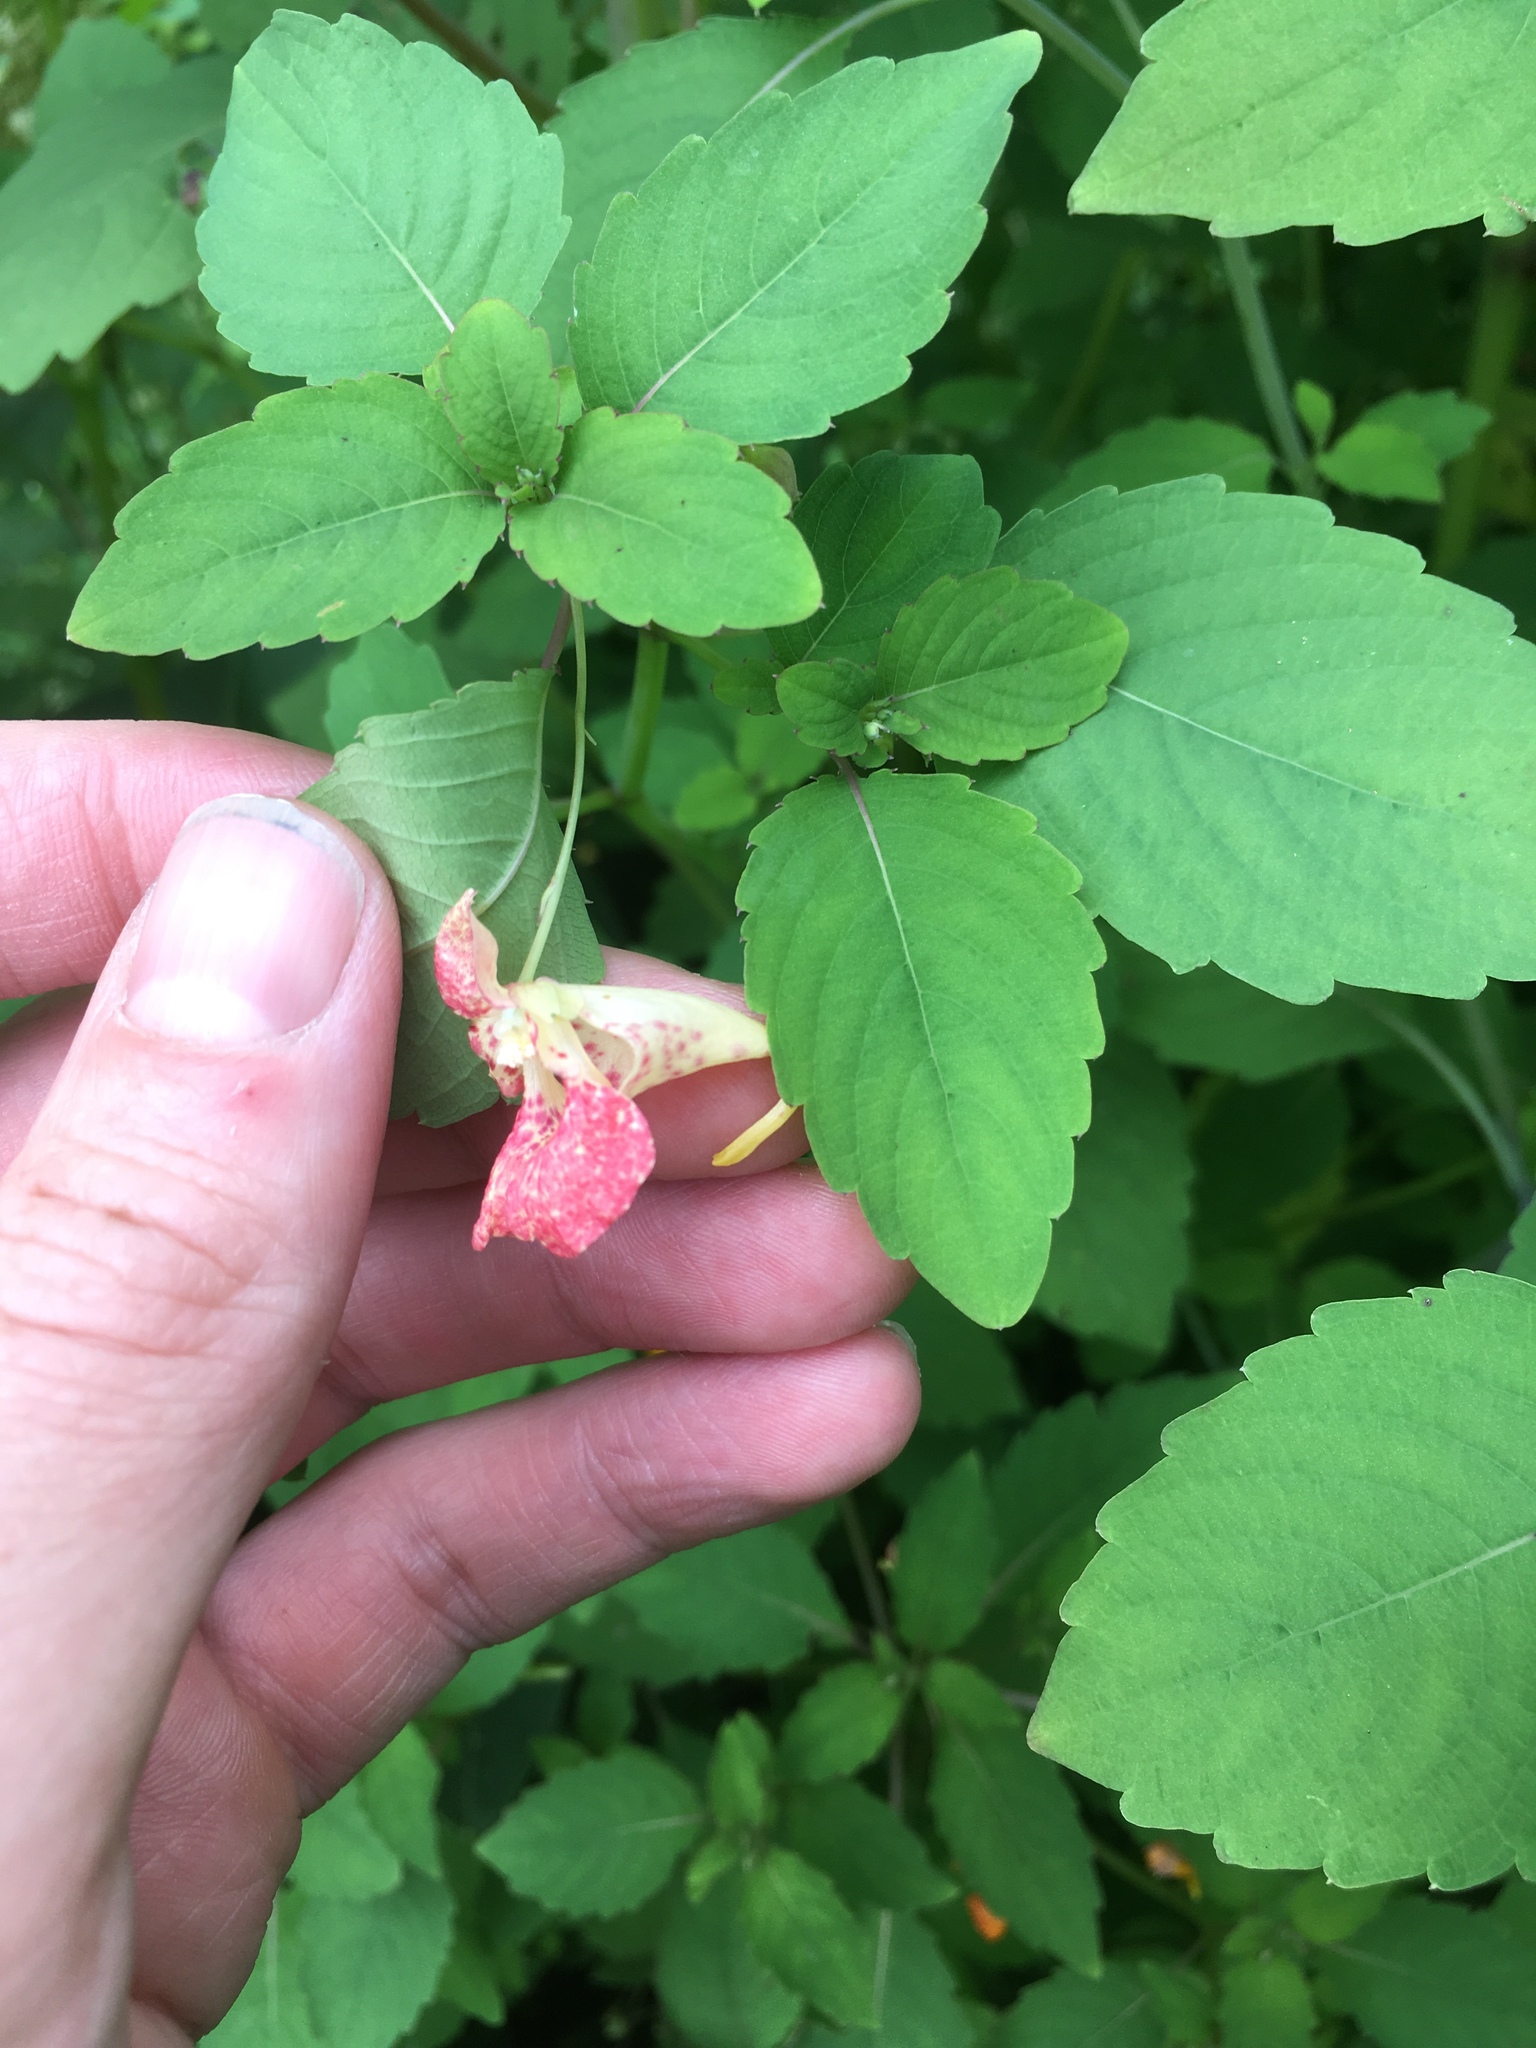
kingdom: Plantae
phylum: Tracheophyta
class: Magnoliopsida
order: Ericales
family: Balsaminaceae
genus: Impatiens
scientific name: Impatiens capensis
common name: Orange balsam
